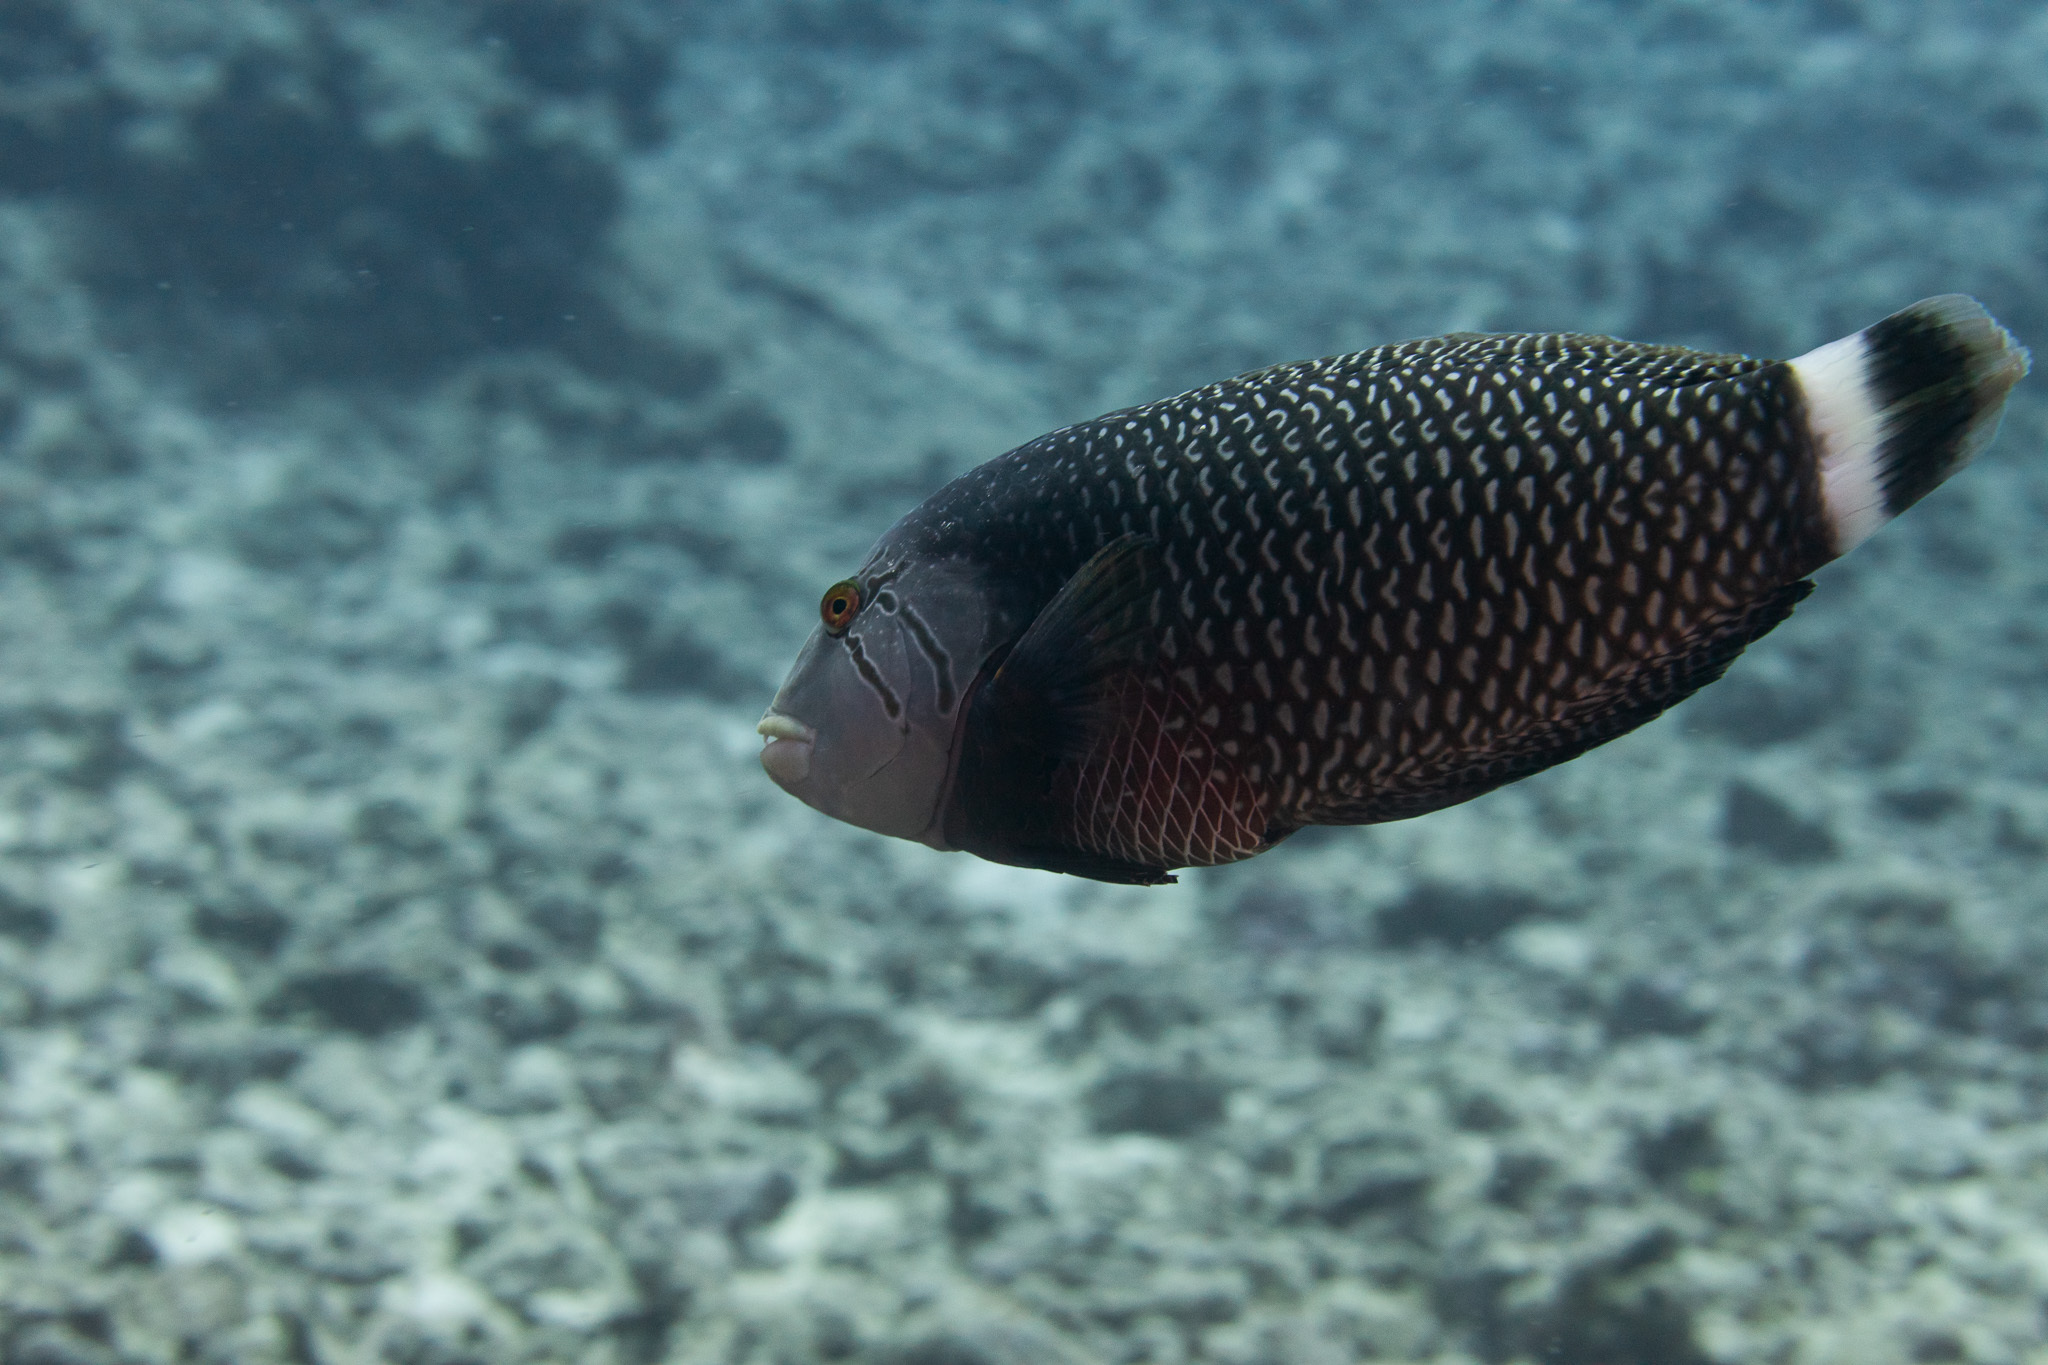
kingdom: Animalia
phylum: Chordata
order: Perciformes
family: Labridae
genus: Novaculichthys
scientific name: Novaculichthys taeniourus
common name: Rockmover wrasse
